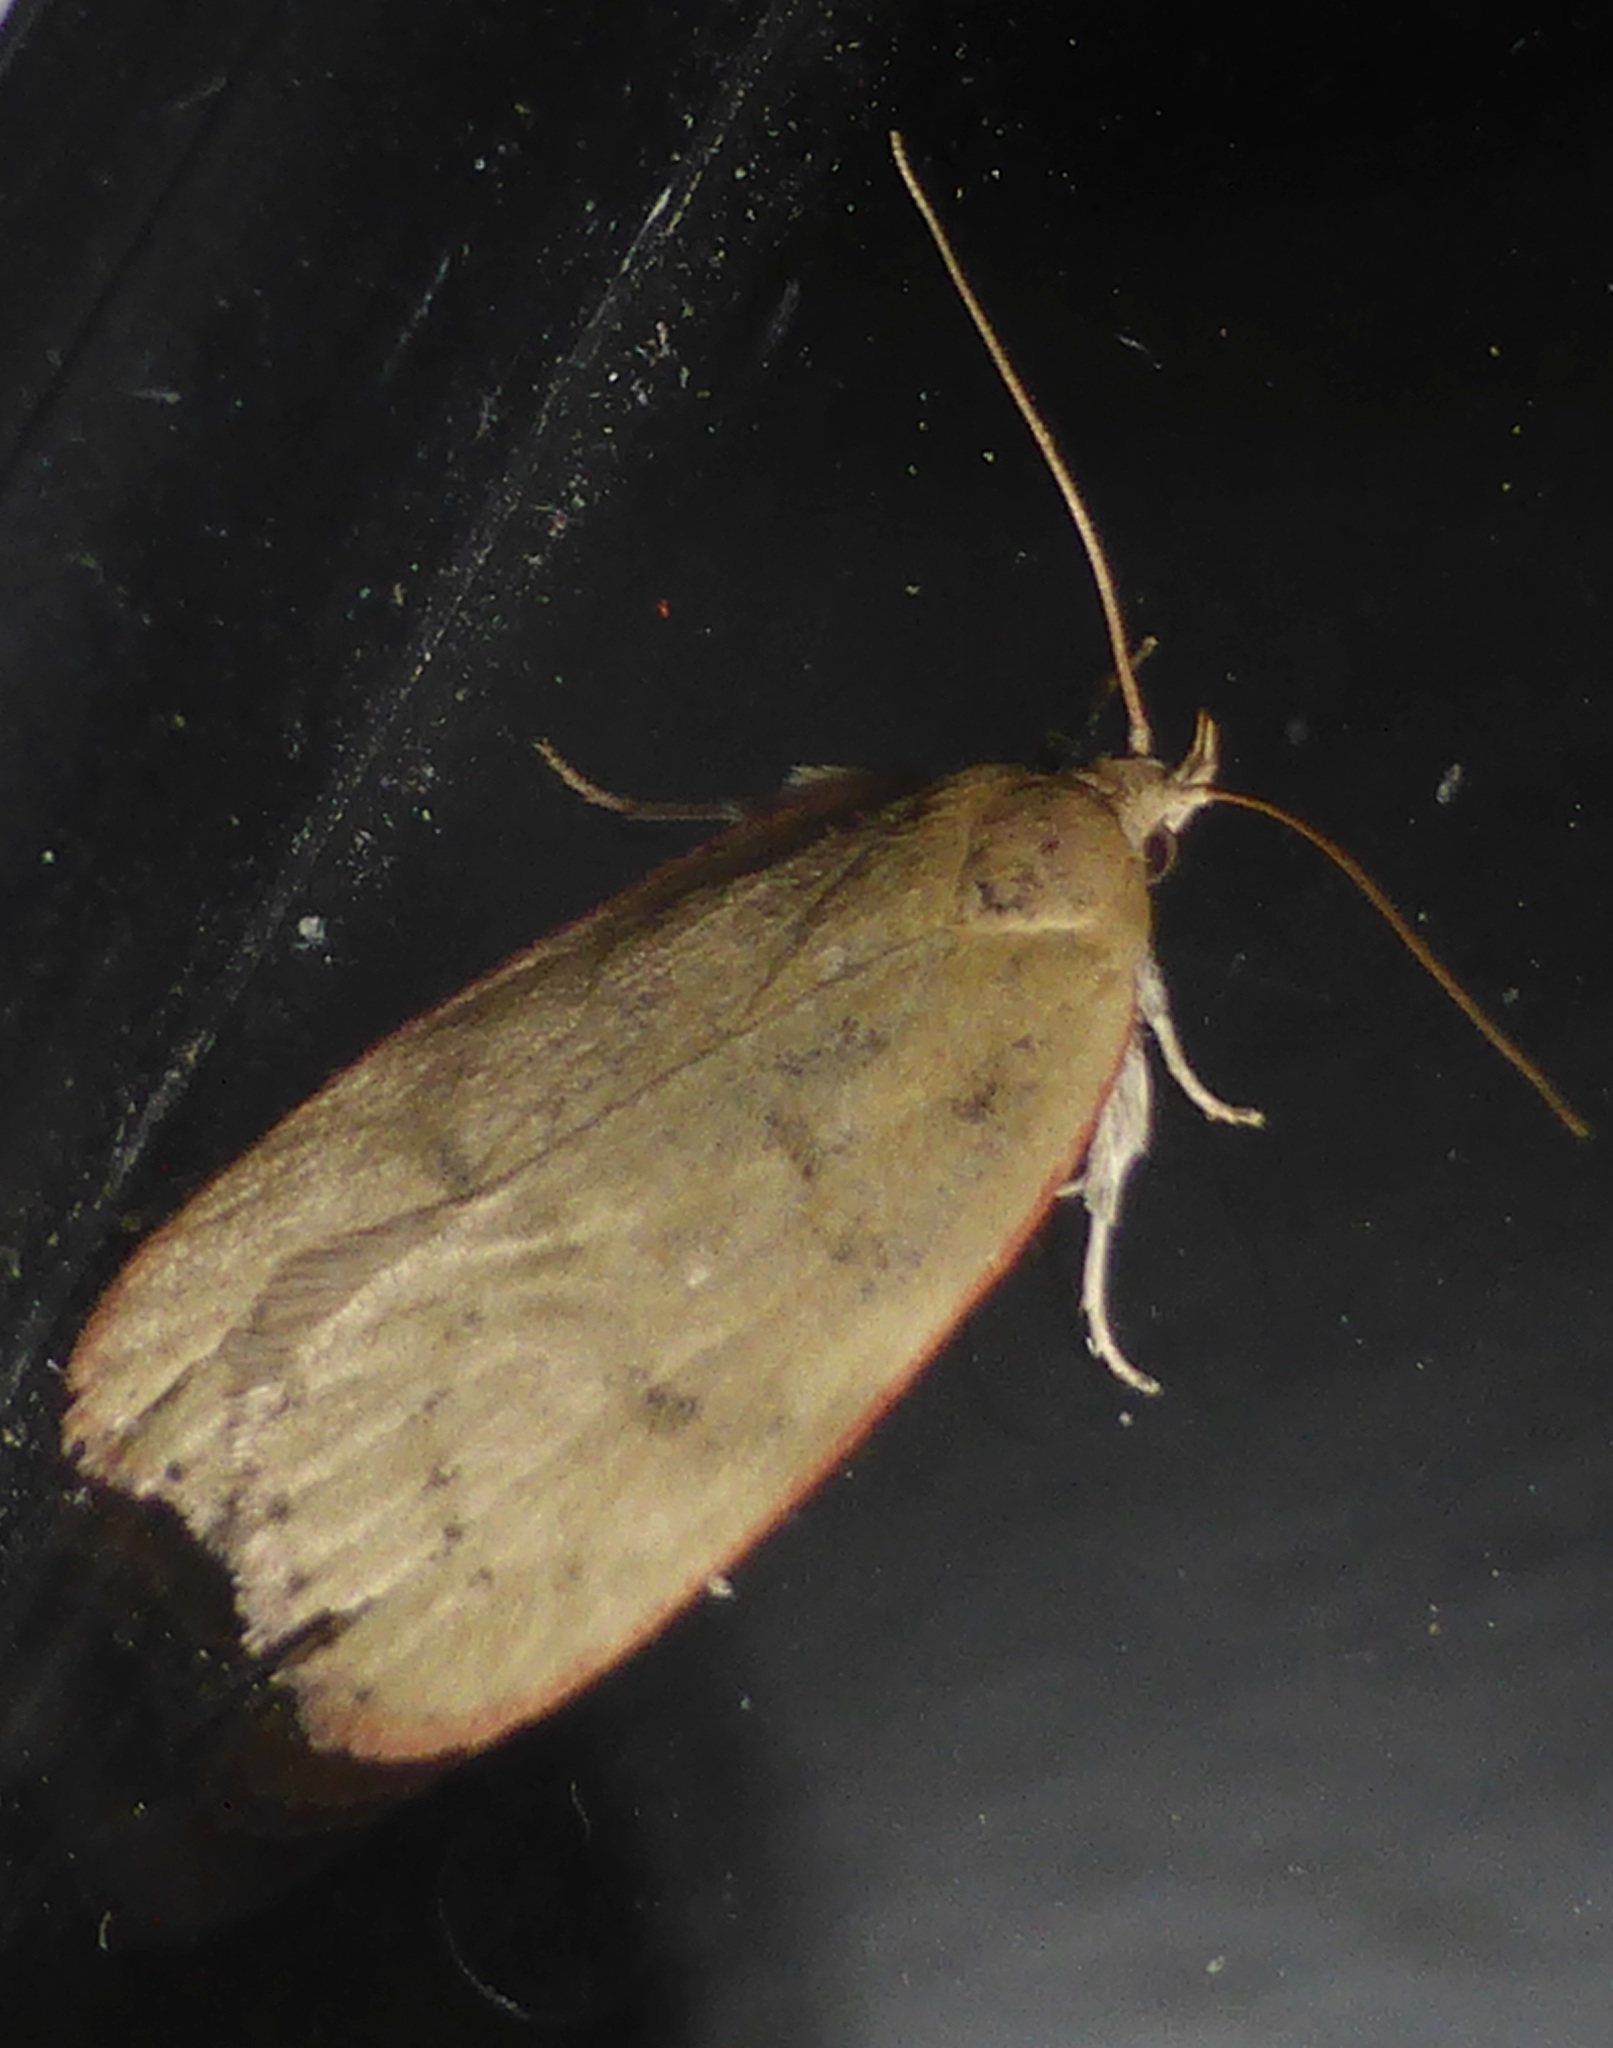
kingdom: Animalia
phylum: Arthropoda
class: Insecta
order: Lepidoptera
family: Depressariidae
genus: Phaeosaces
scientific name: Phaeosaces coarctatella
